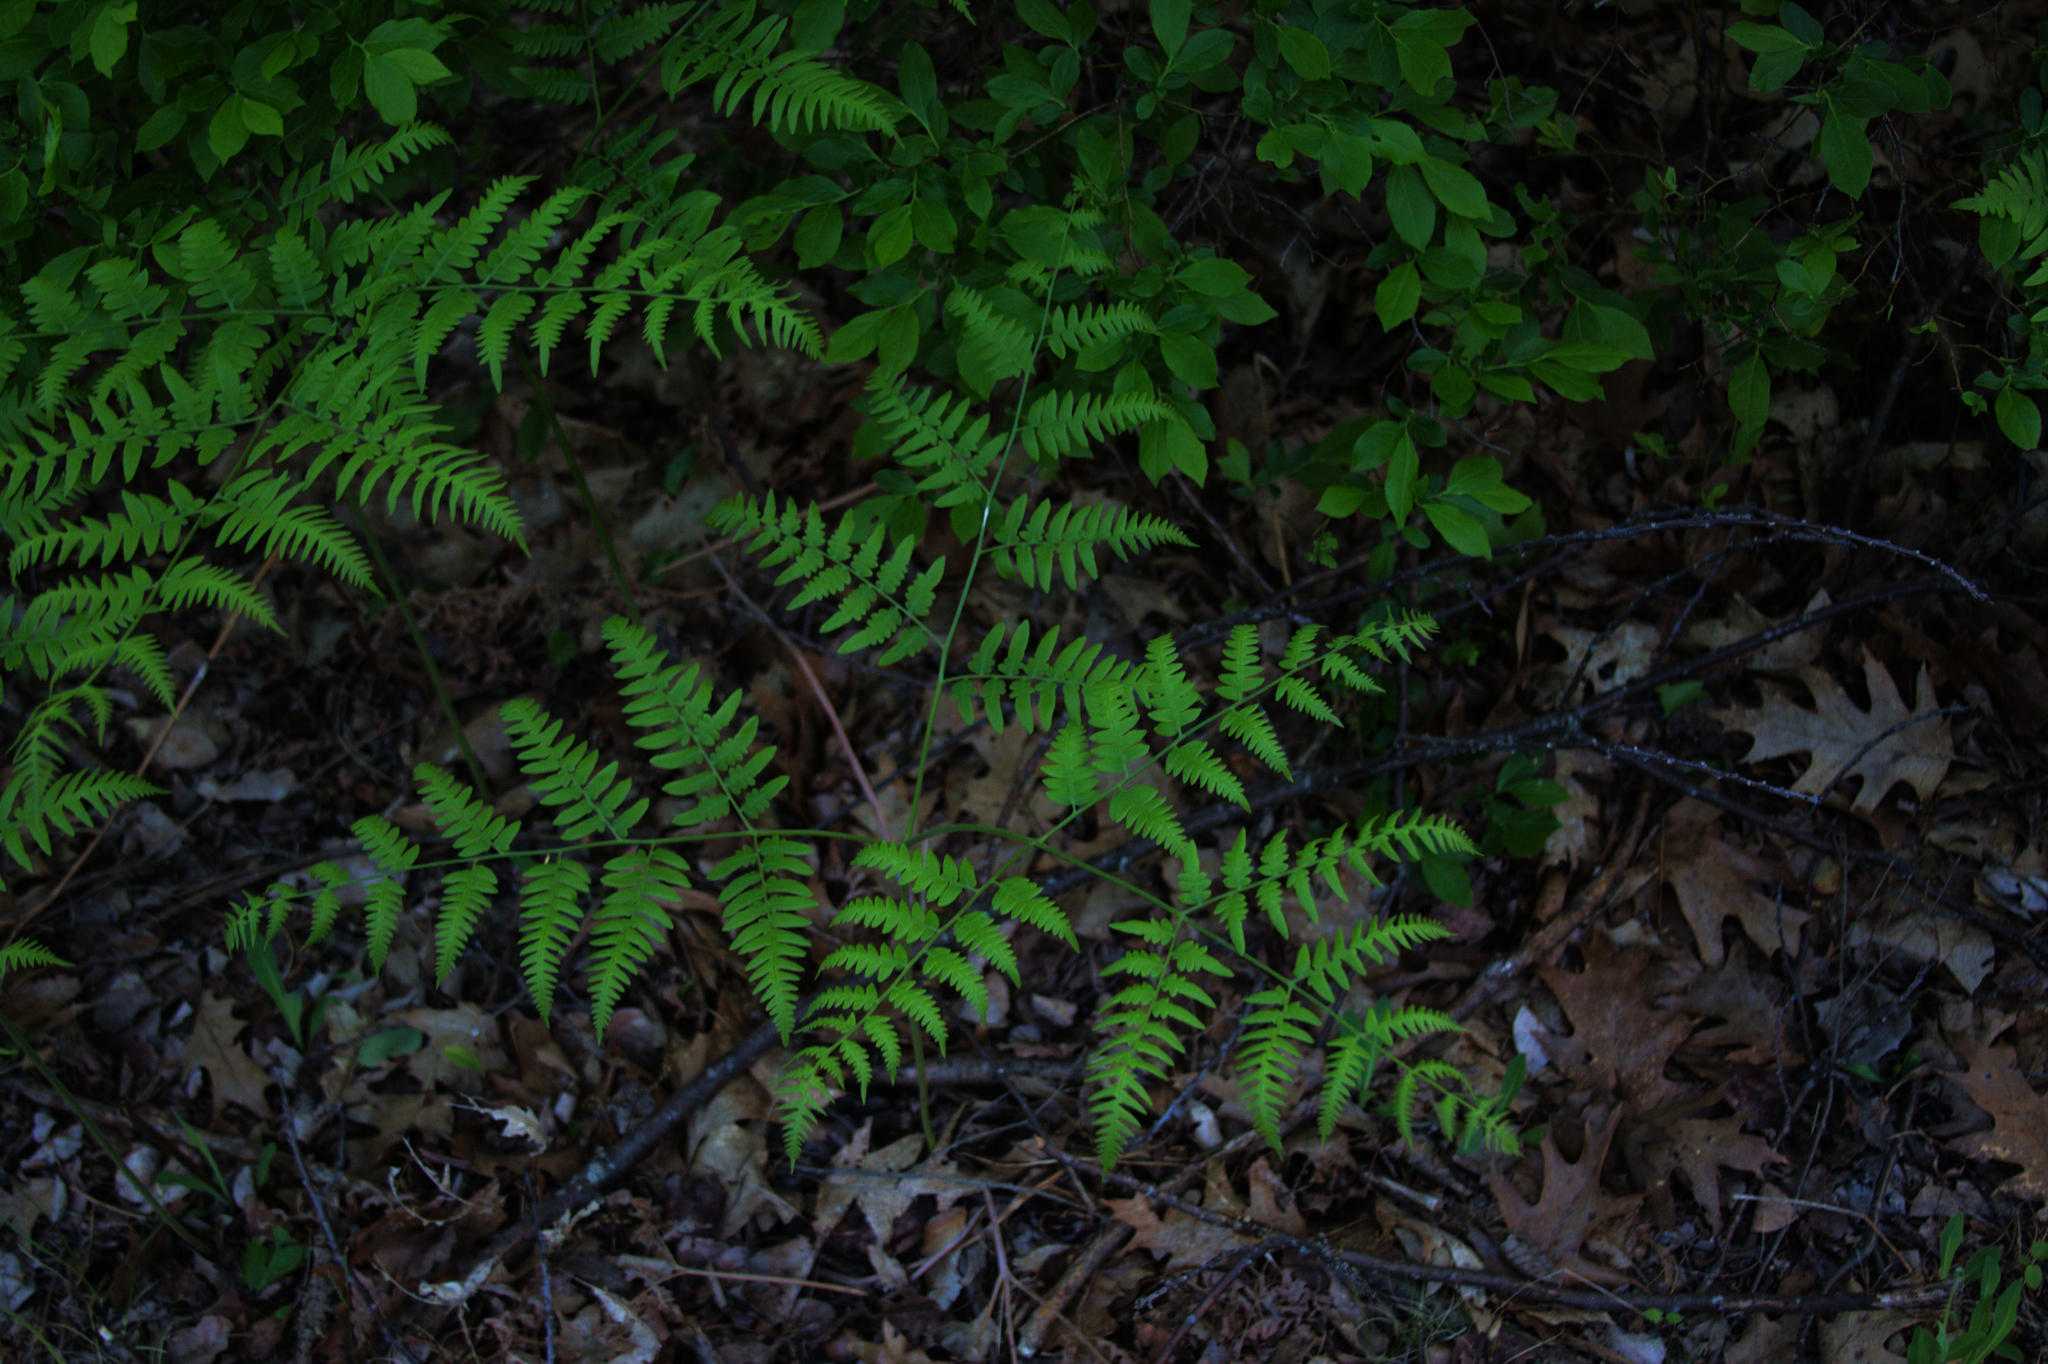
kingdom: Plantae
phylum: Tracheophyta
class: Polypodiopsida
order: Polypodiales
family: Dennstaedtiaceae
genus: Pteridium
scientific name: Pteridium aquilinum
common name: Bracken
